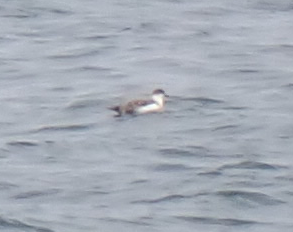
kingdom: Animalia
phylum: Chordata
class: Aves
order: Procellariiformes
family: Procellariidae
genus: Puffinus
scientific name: Puffinus gravis
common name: Great shearwater
